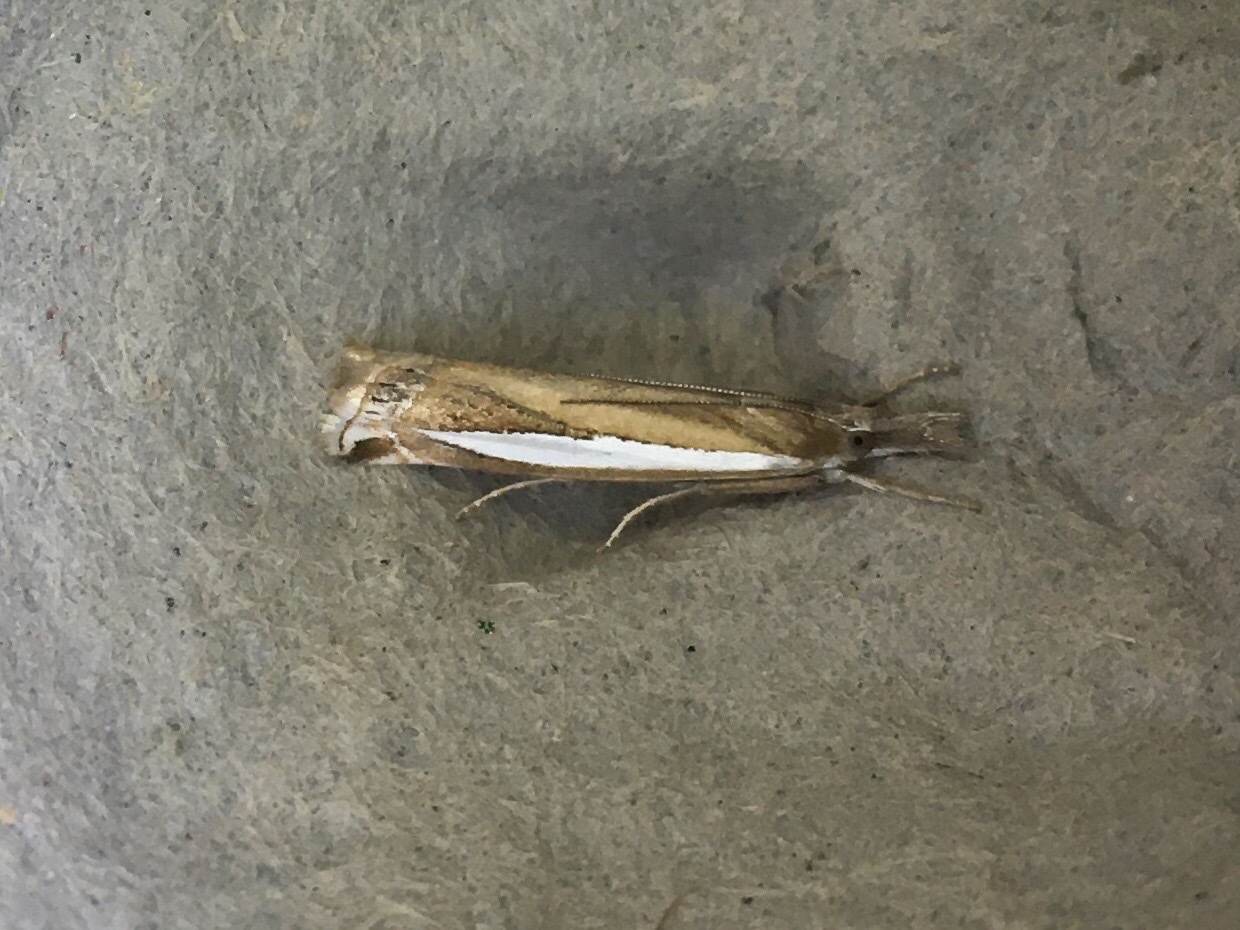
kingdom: Animalia
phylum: Arthropoda
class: Insecta
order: Lepidoptera
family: Crambidae
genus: Crambus
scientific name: Crambus praefectellus
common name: Common grass-veneer
